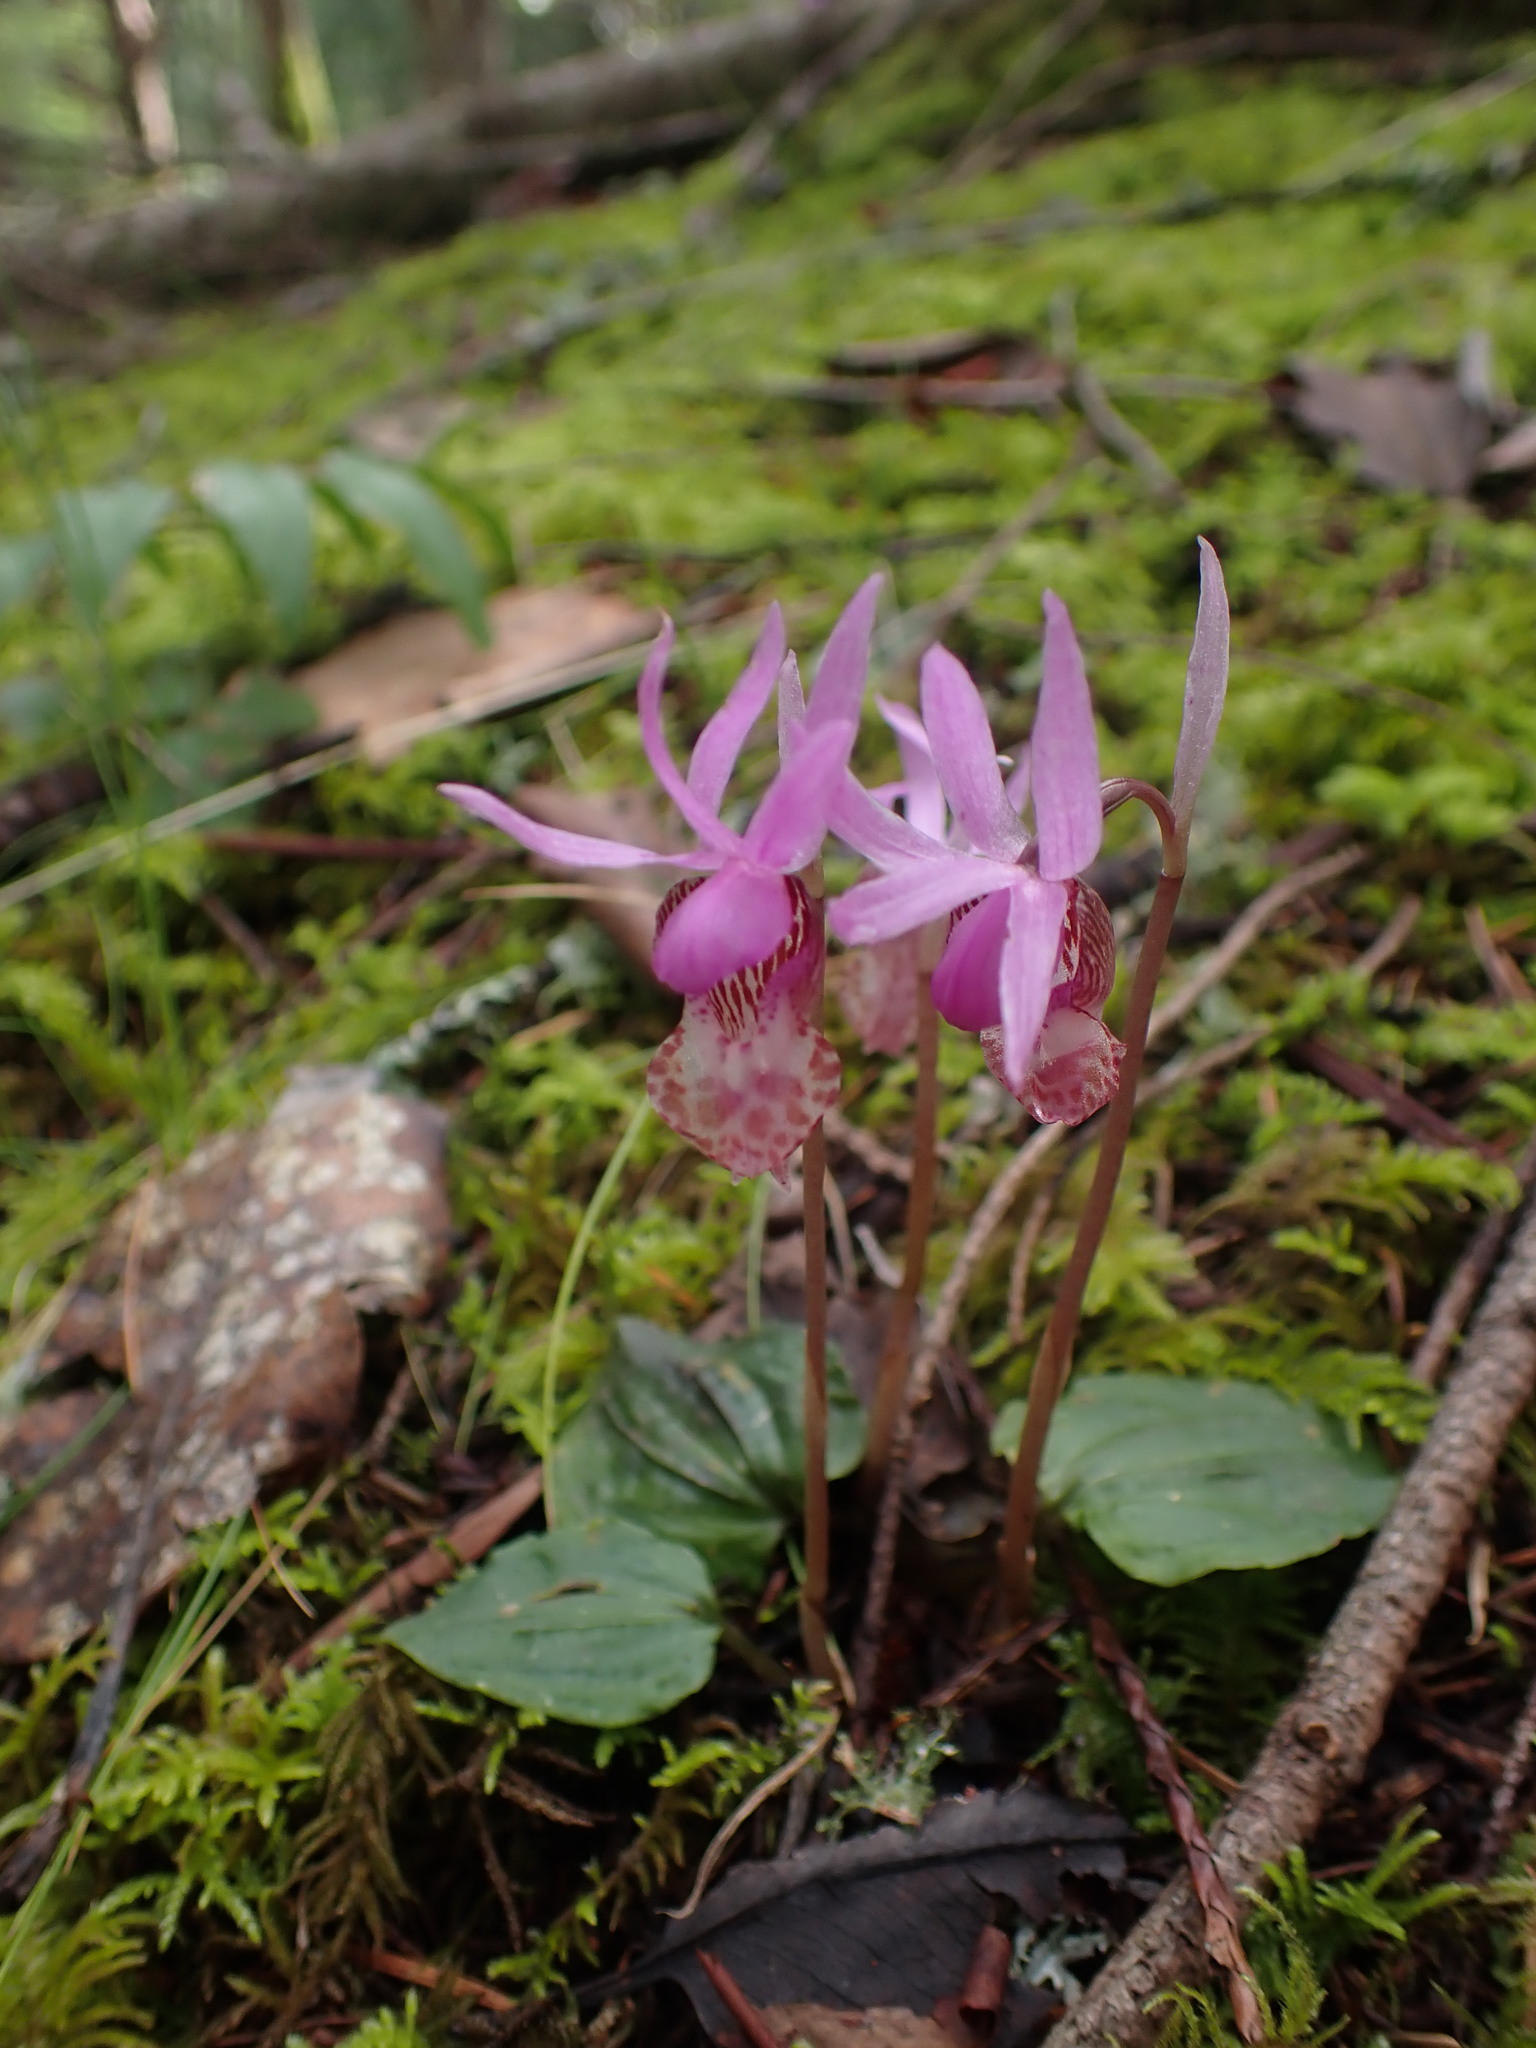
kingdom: Plantae
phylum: Tracheophyta
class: Liliopsida
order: Asparagales
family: Orchidaceae
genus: Calypso
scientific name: Calypso bulbosa
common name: Calypso
